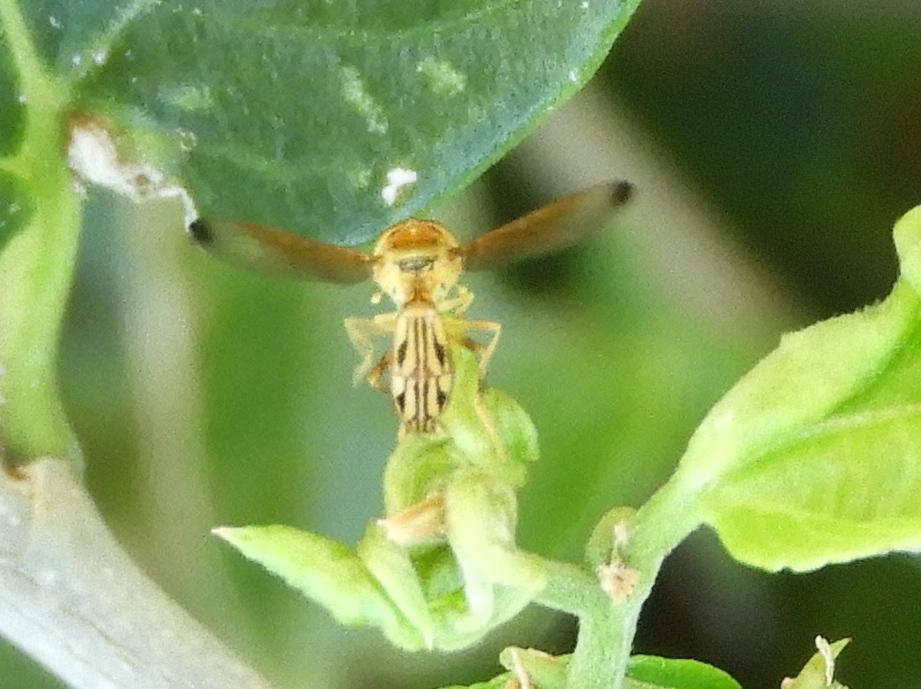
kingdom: Animalia
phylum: Arthropoda
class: Insecta
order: Diptera
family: Syrphidae
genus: Hybobathus
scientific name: Hybobathus
